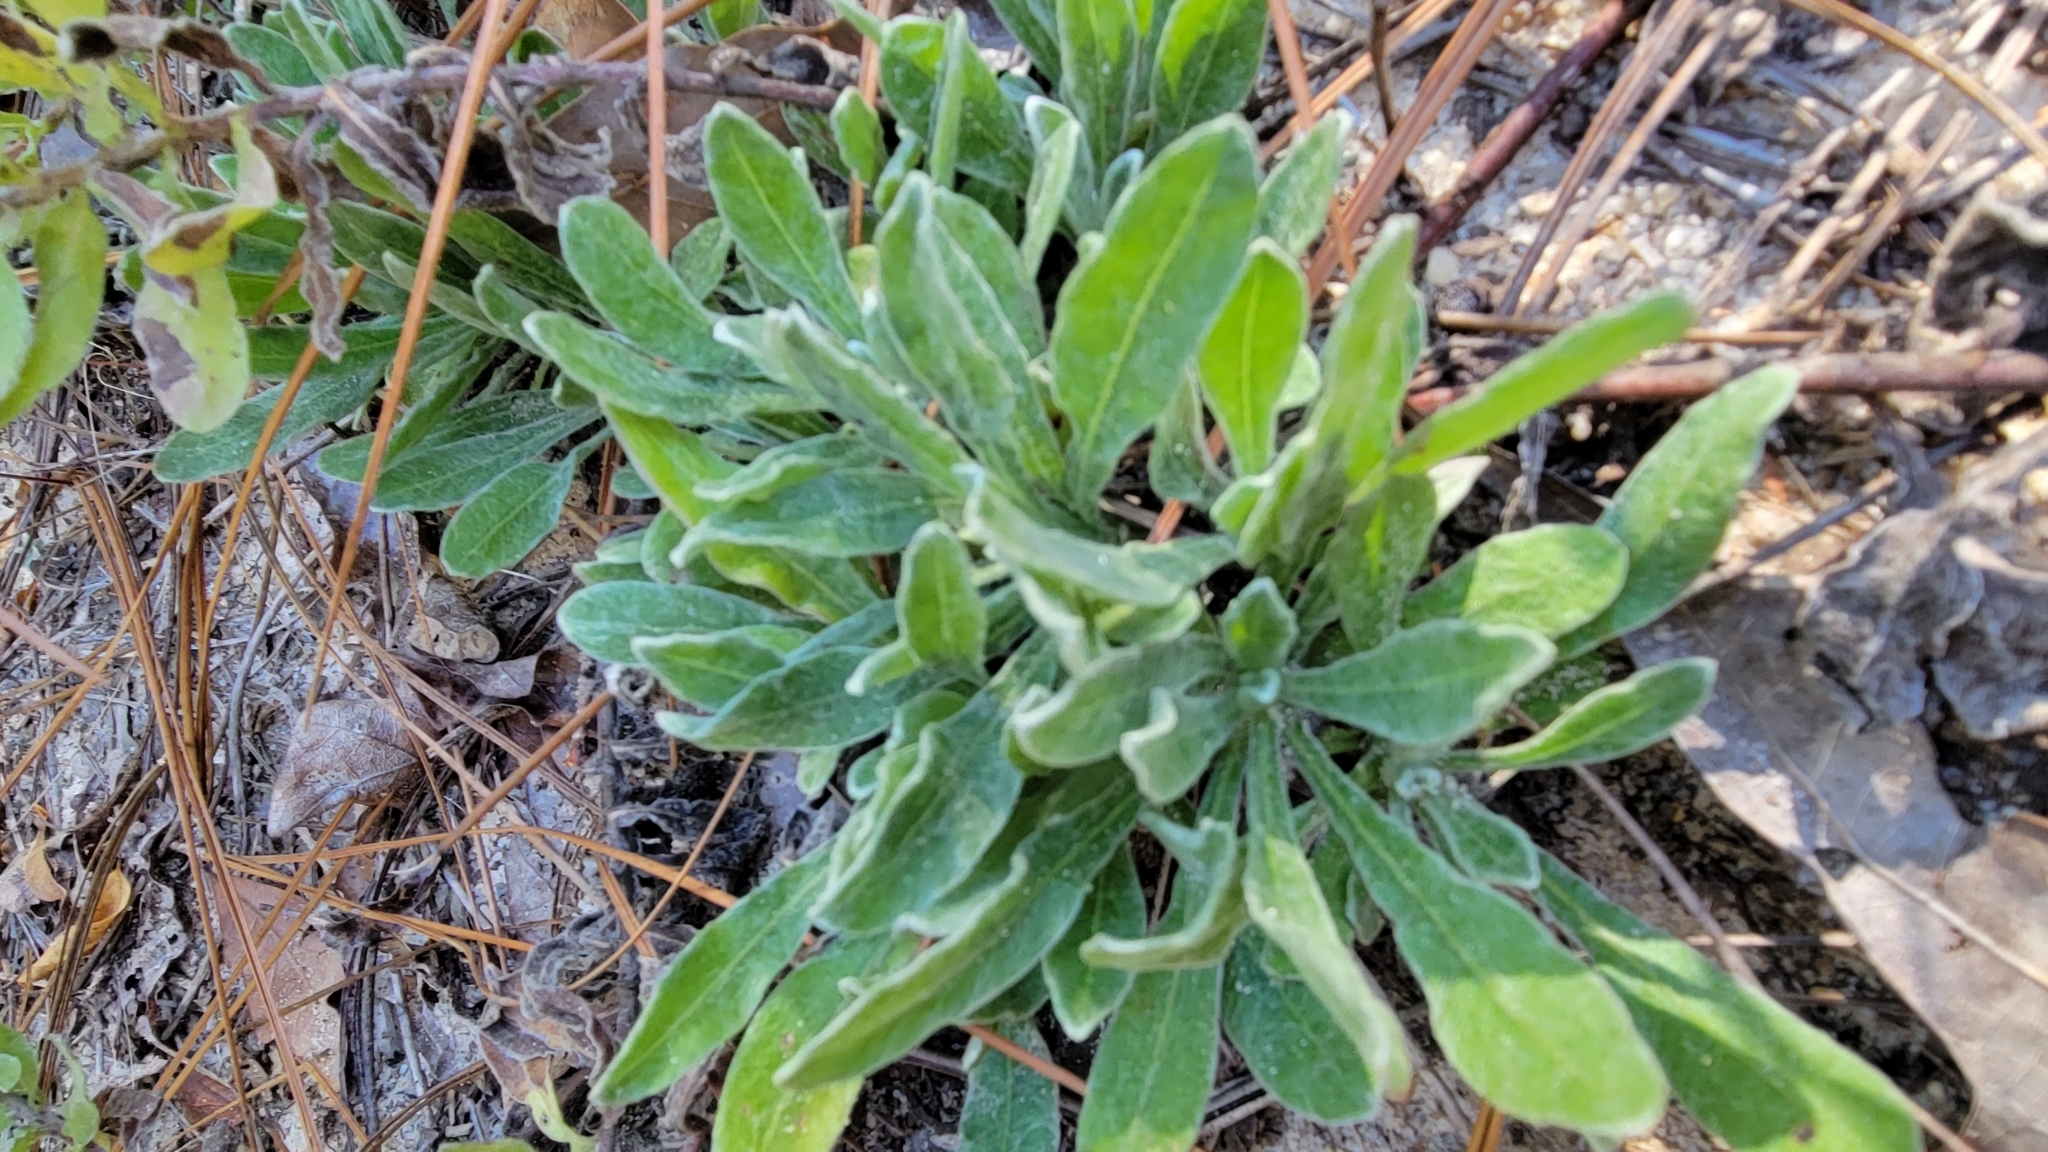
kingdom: Plantae
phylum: Tracheophyta
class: Magnoliopsida
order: Asterales
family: Asteraceae
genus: Chrysopsis
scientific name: Chrysopsis gossypina
